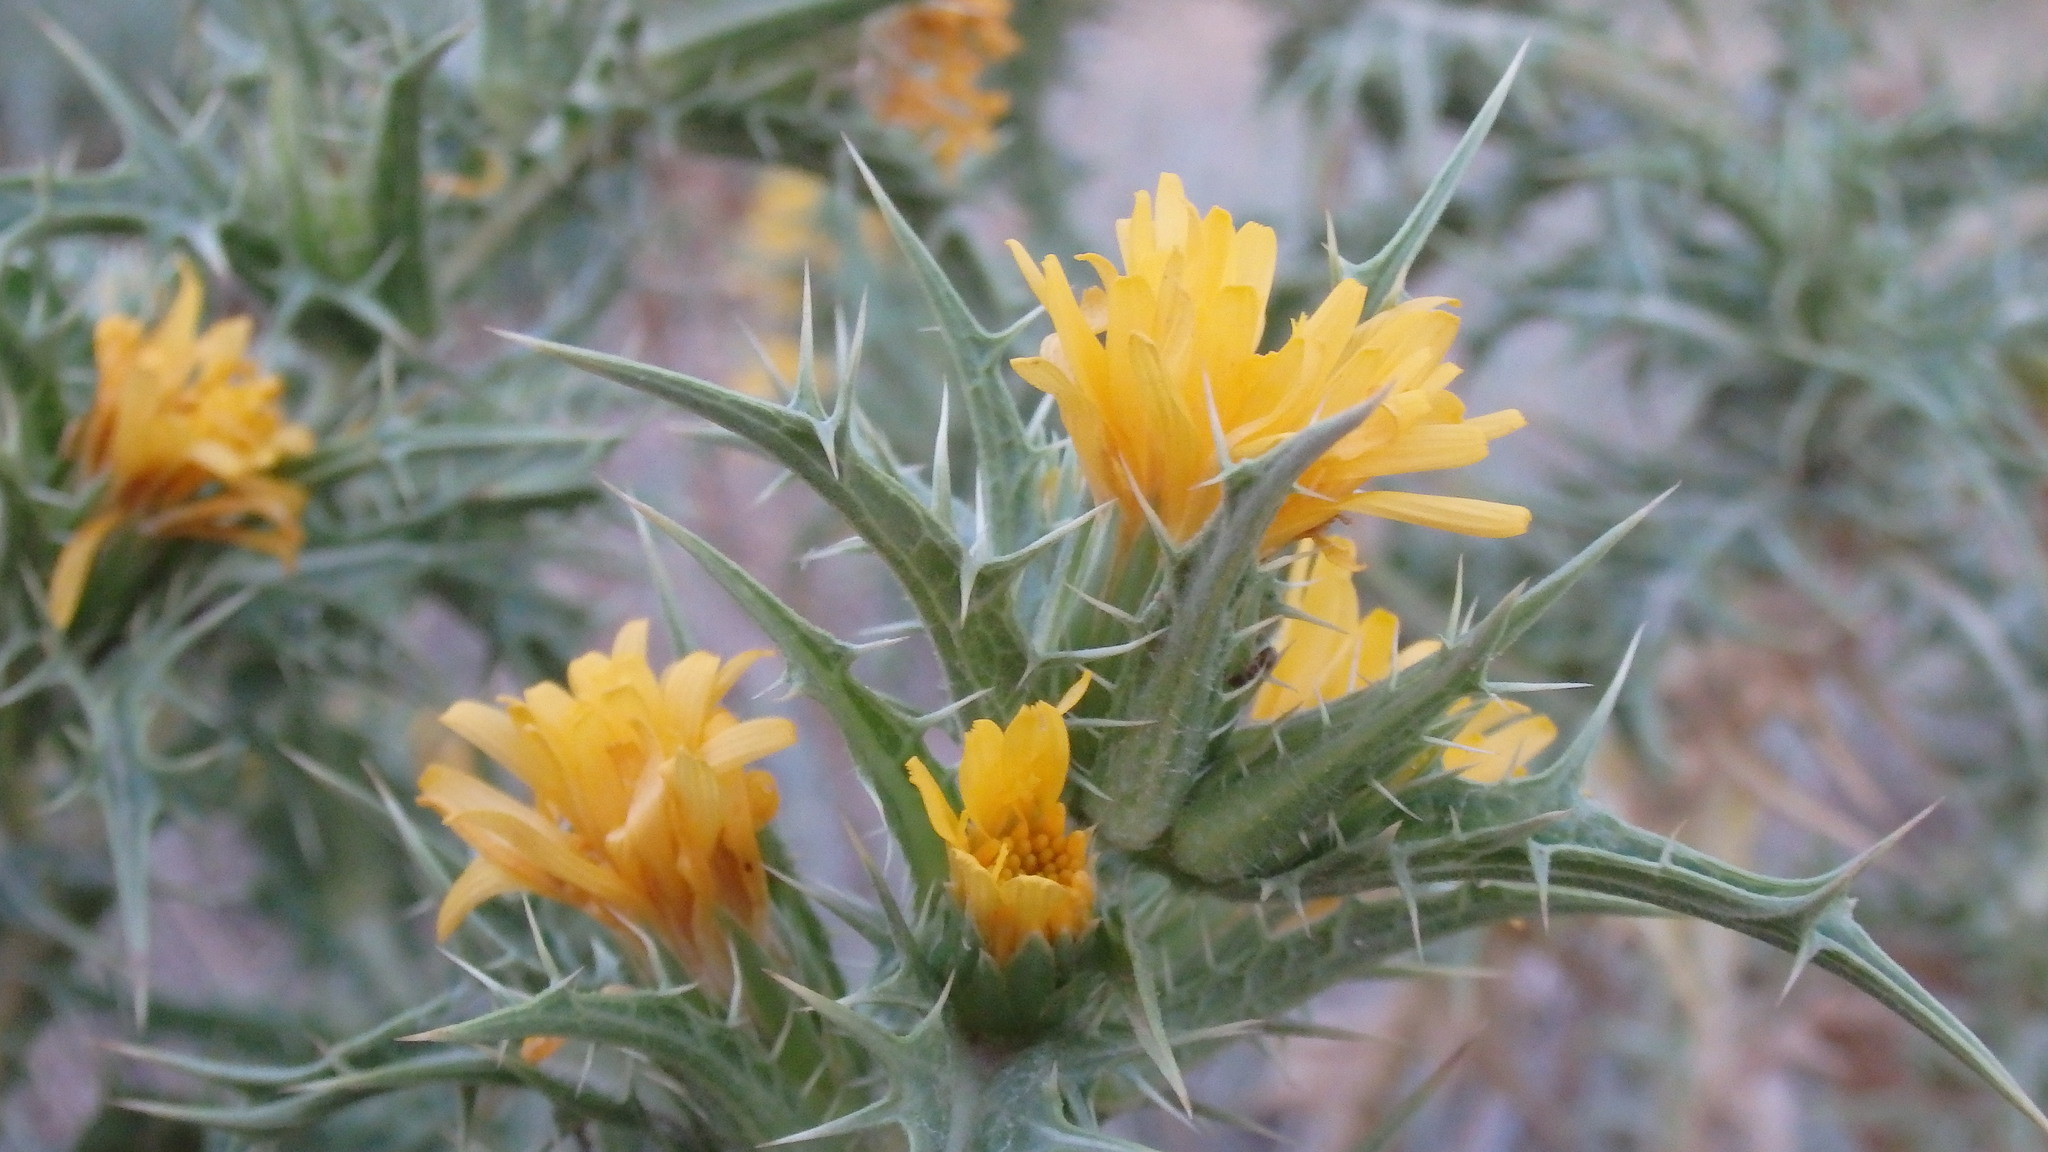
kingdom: Plantae
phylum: Tracheophyta
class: Magnoliopsida
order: Asterales
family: Asteraceae
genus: Scolymus
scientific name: Scolymus hispanicus
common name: Golden thistle
